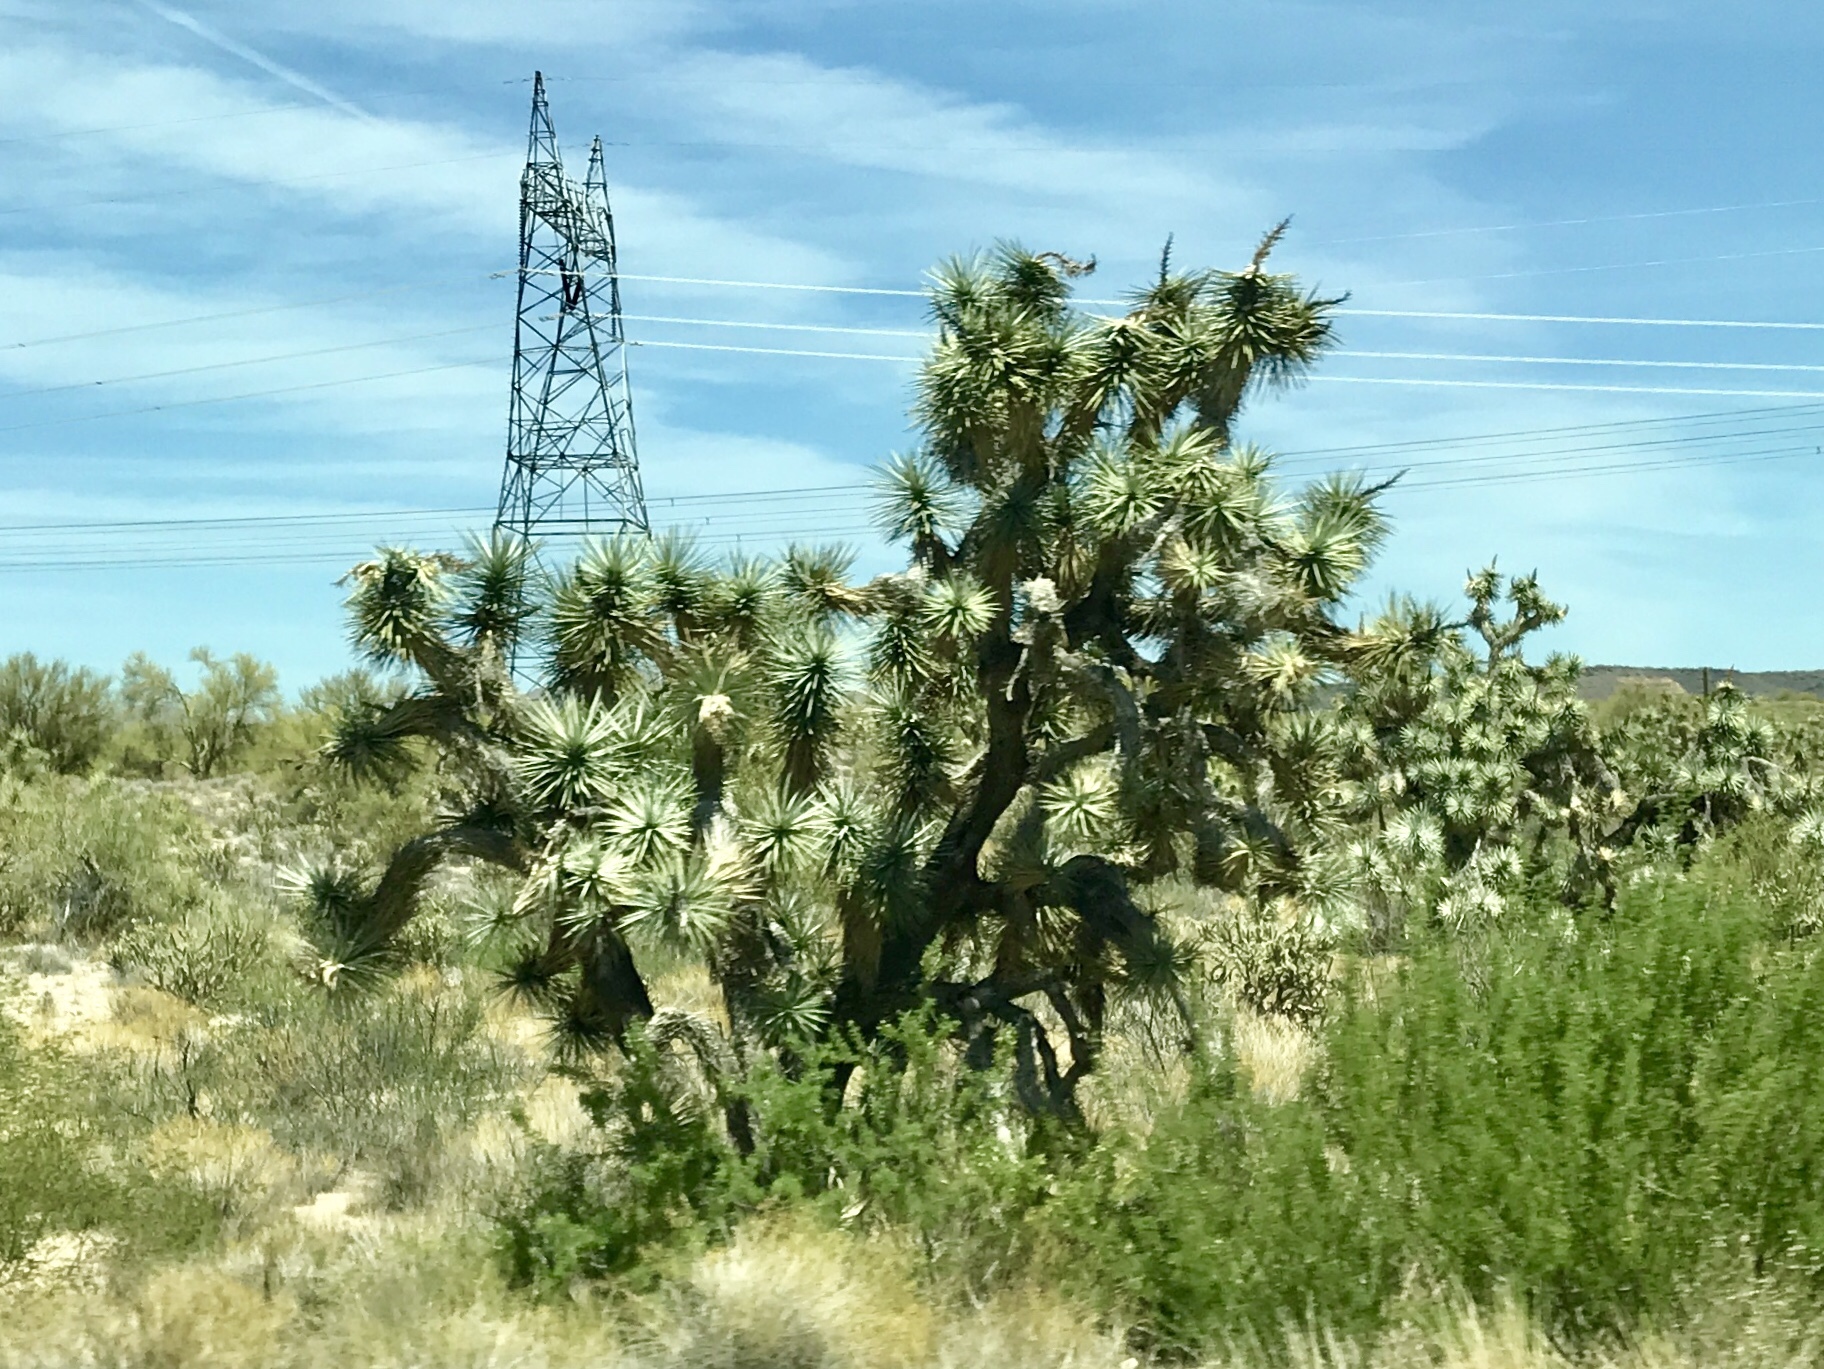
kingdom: Plantae
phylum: Tracheophyta
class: Liliopsida
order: Asparagales
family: Asparagaceae
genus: Yucca
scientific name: Yucca brevifolia
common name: Joshua tree
